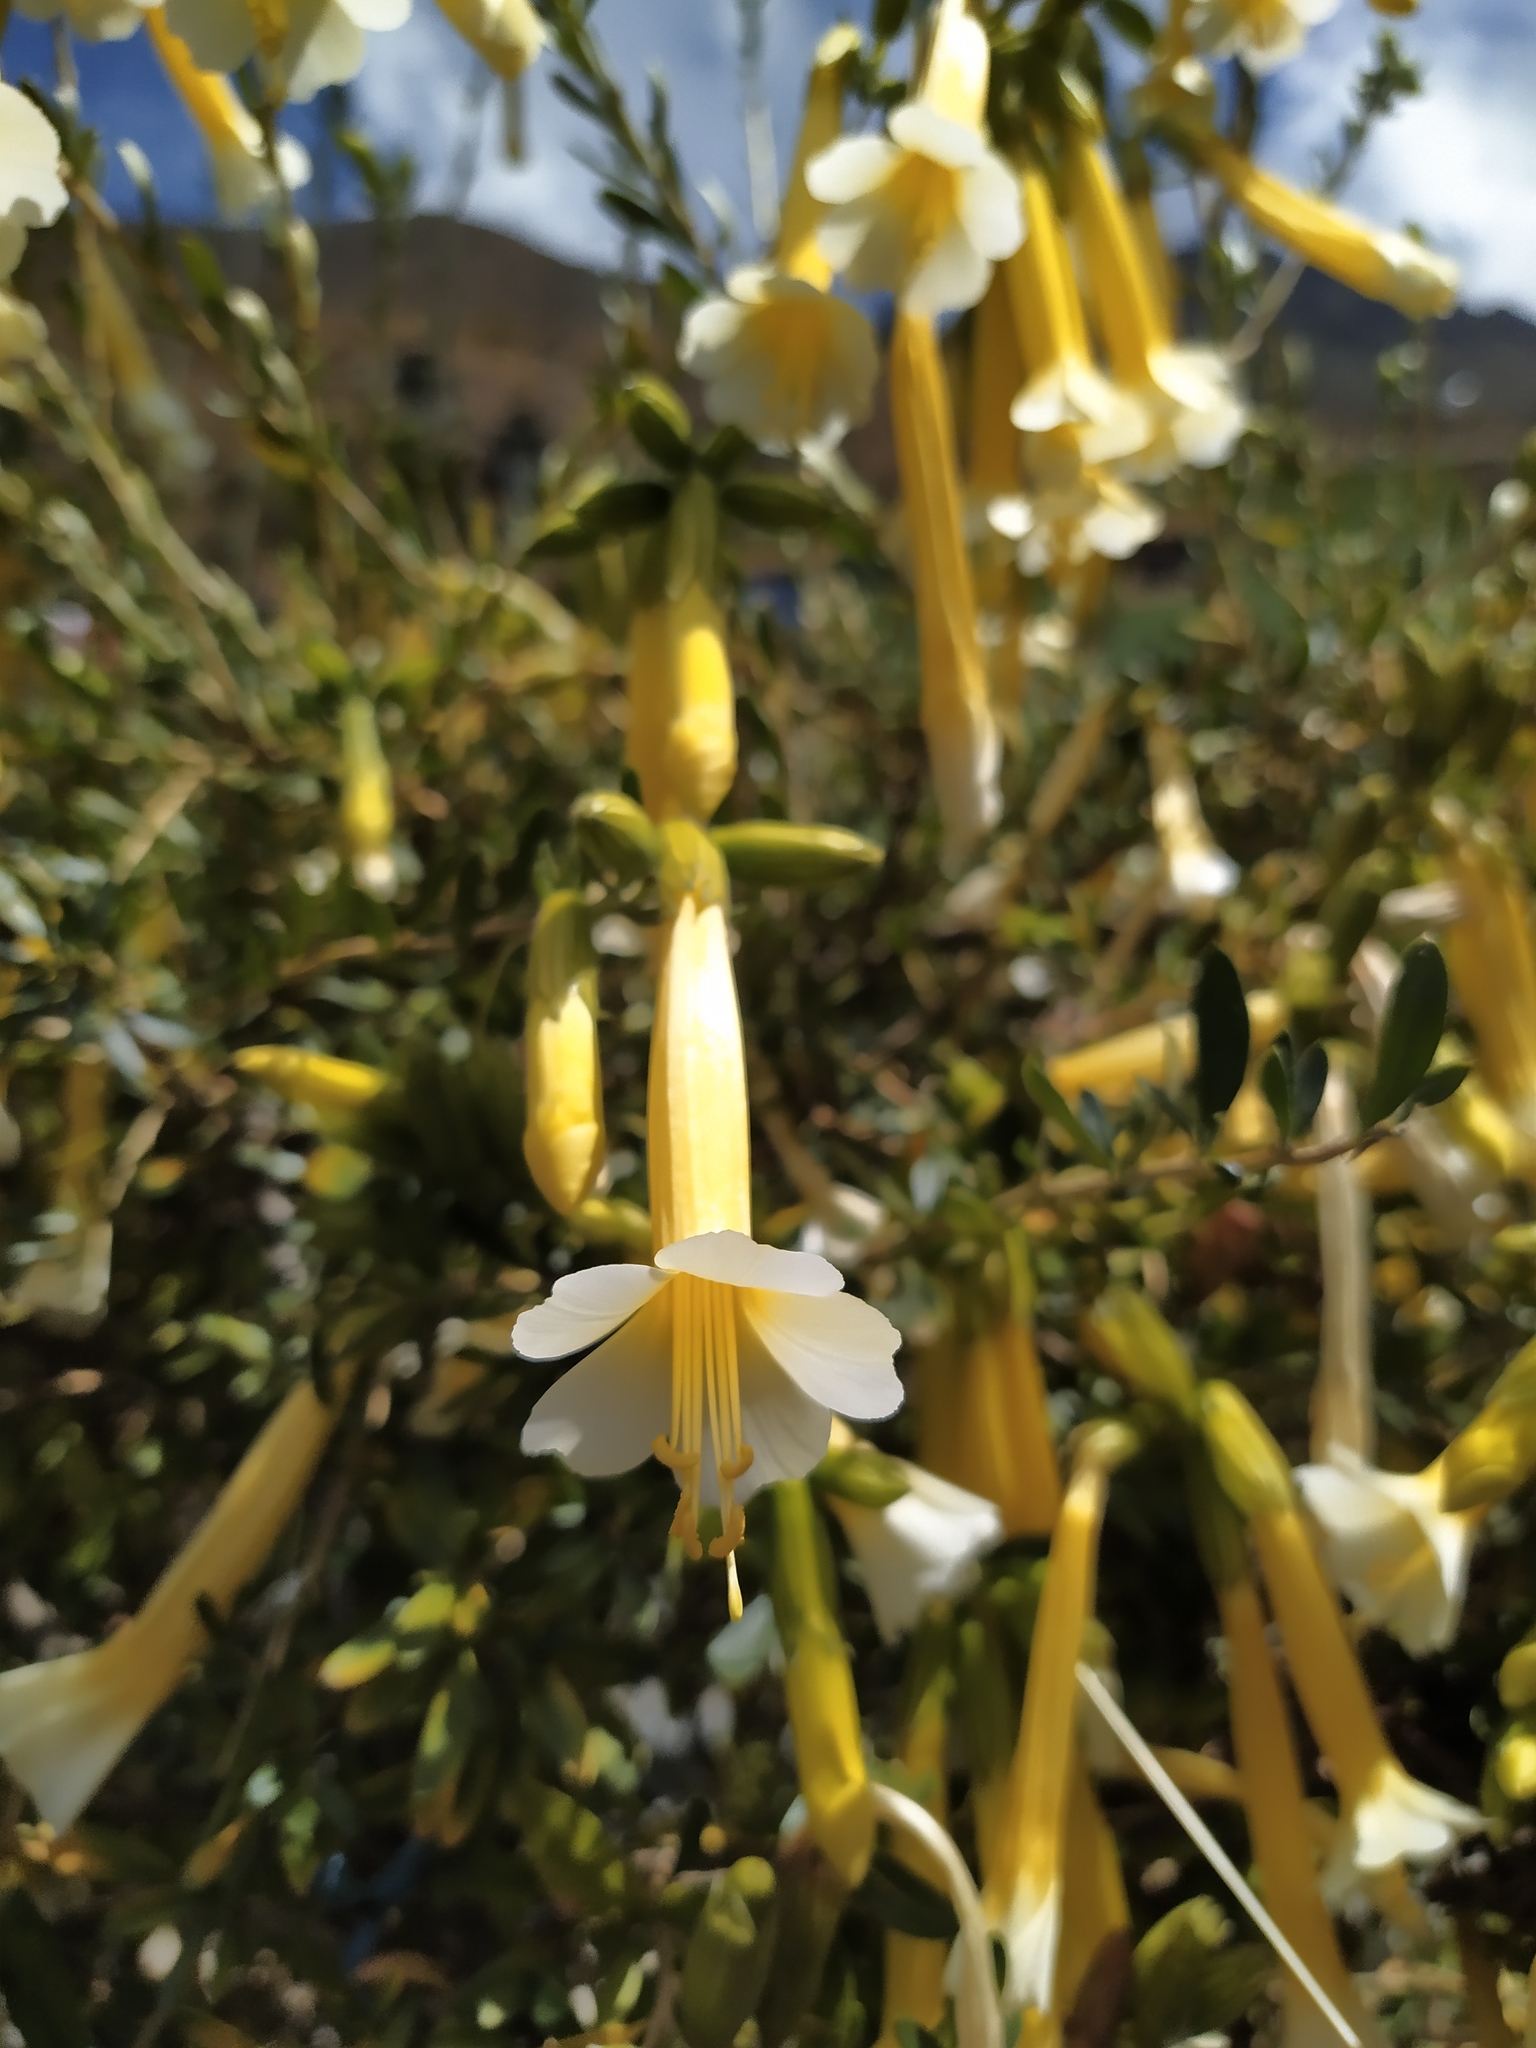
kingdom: Plantae
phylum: Tracheophyta
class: Magnoliopsida
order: Ericales
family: Polemoniaceae
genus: Cantua
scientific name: Cantua buxifolia
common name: Sacred-flower-of-the-incas
